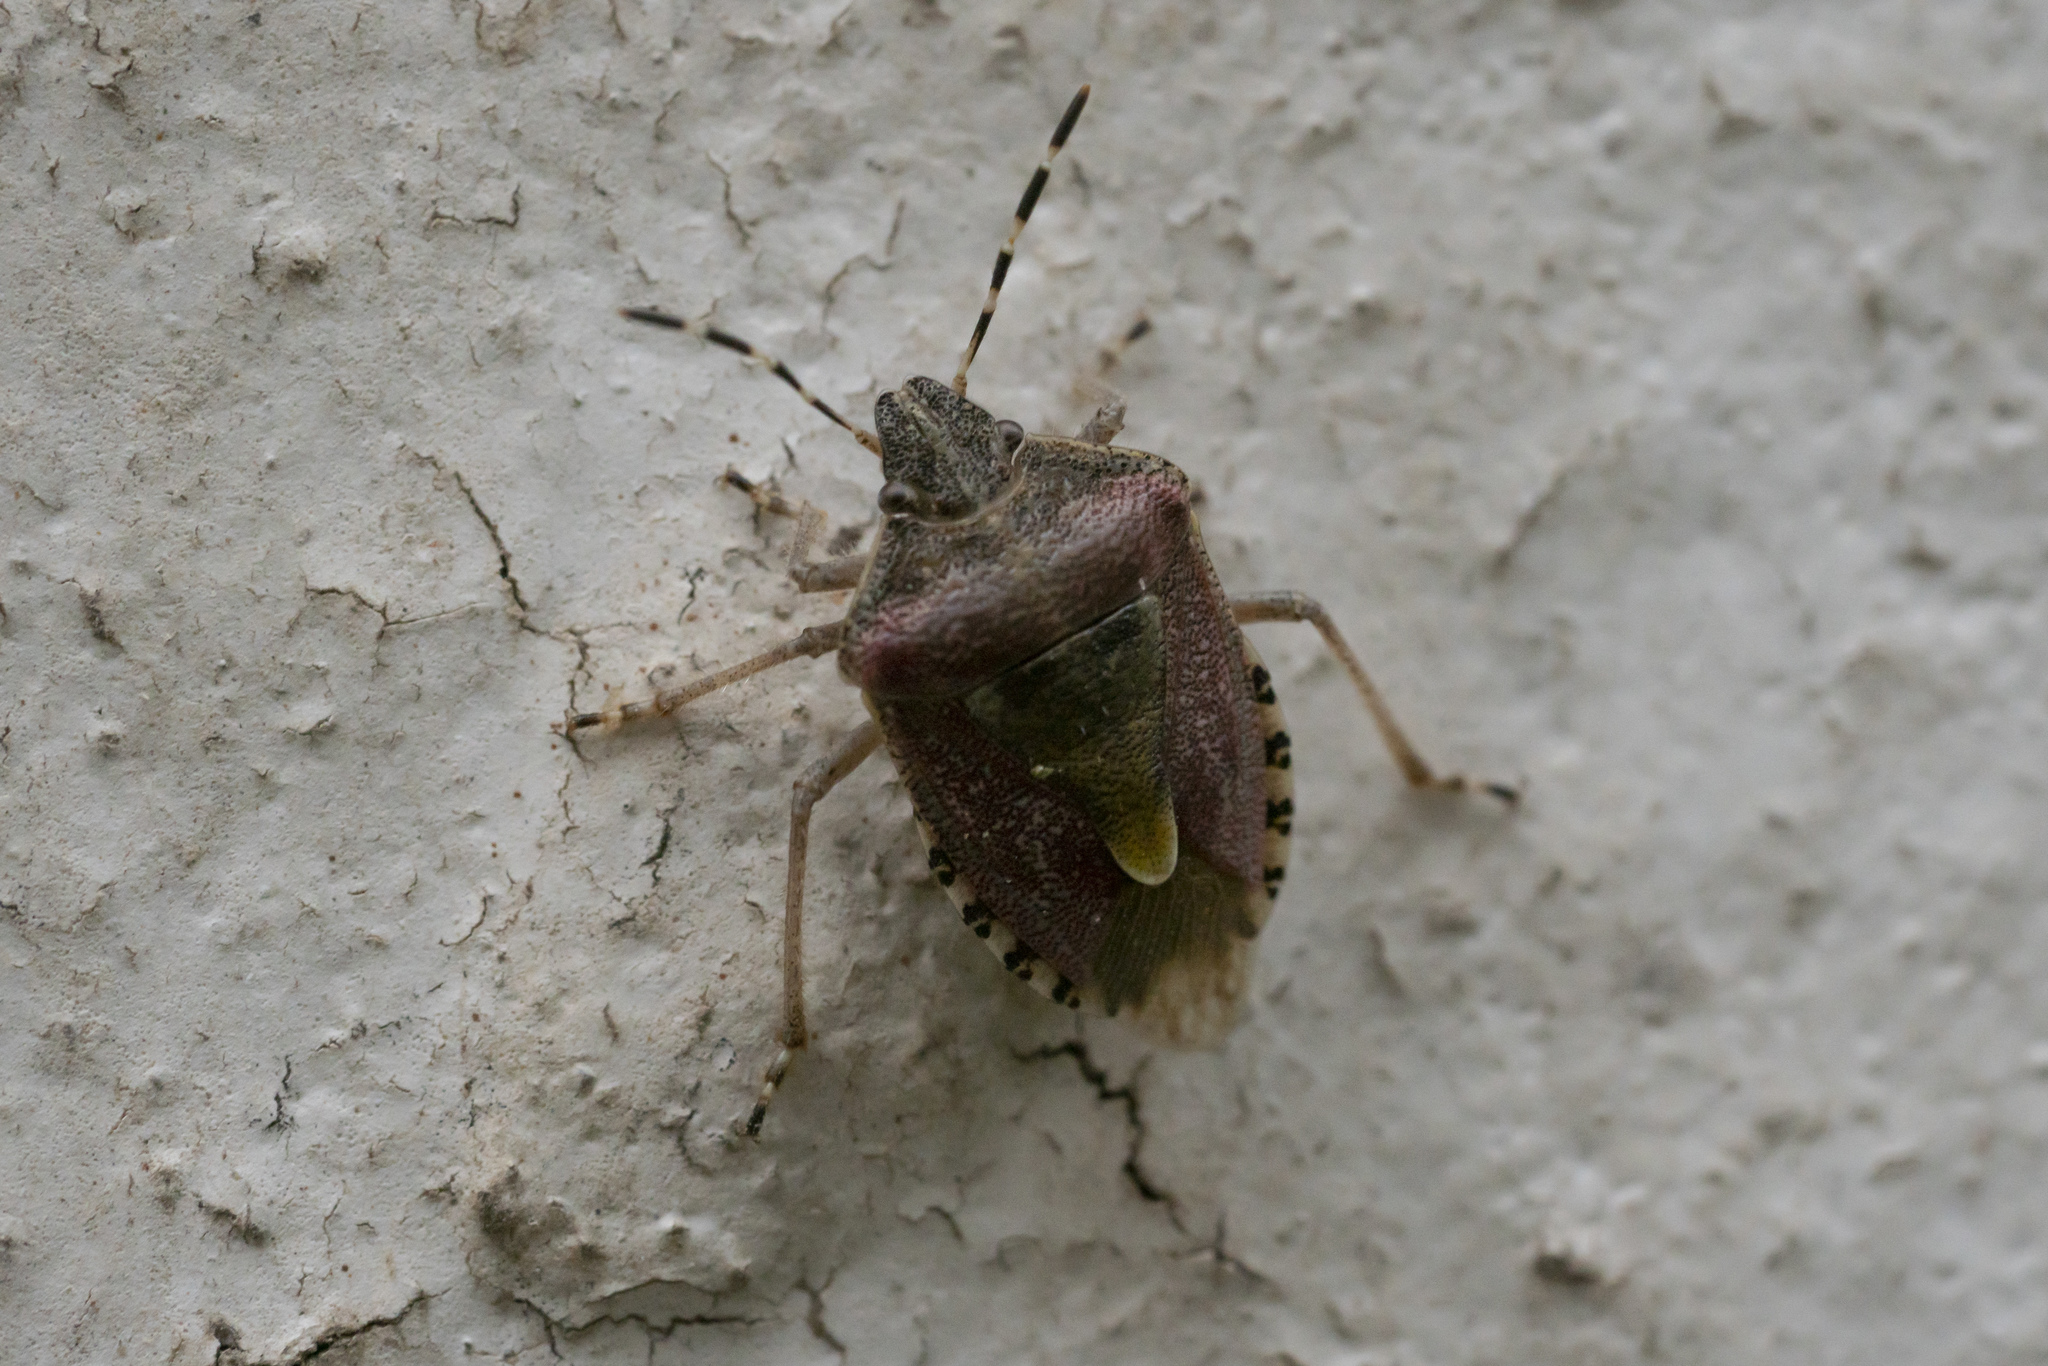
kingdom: Animalia
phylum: Arthropoda
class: Insecta
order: Hemiptera
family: Pentatomidae
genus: Dolycoris
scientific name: Dolycoris baccarum
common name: Sloe bug
